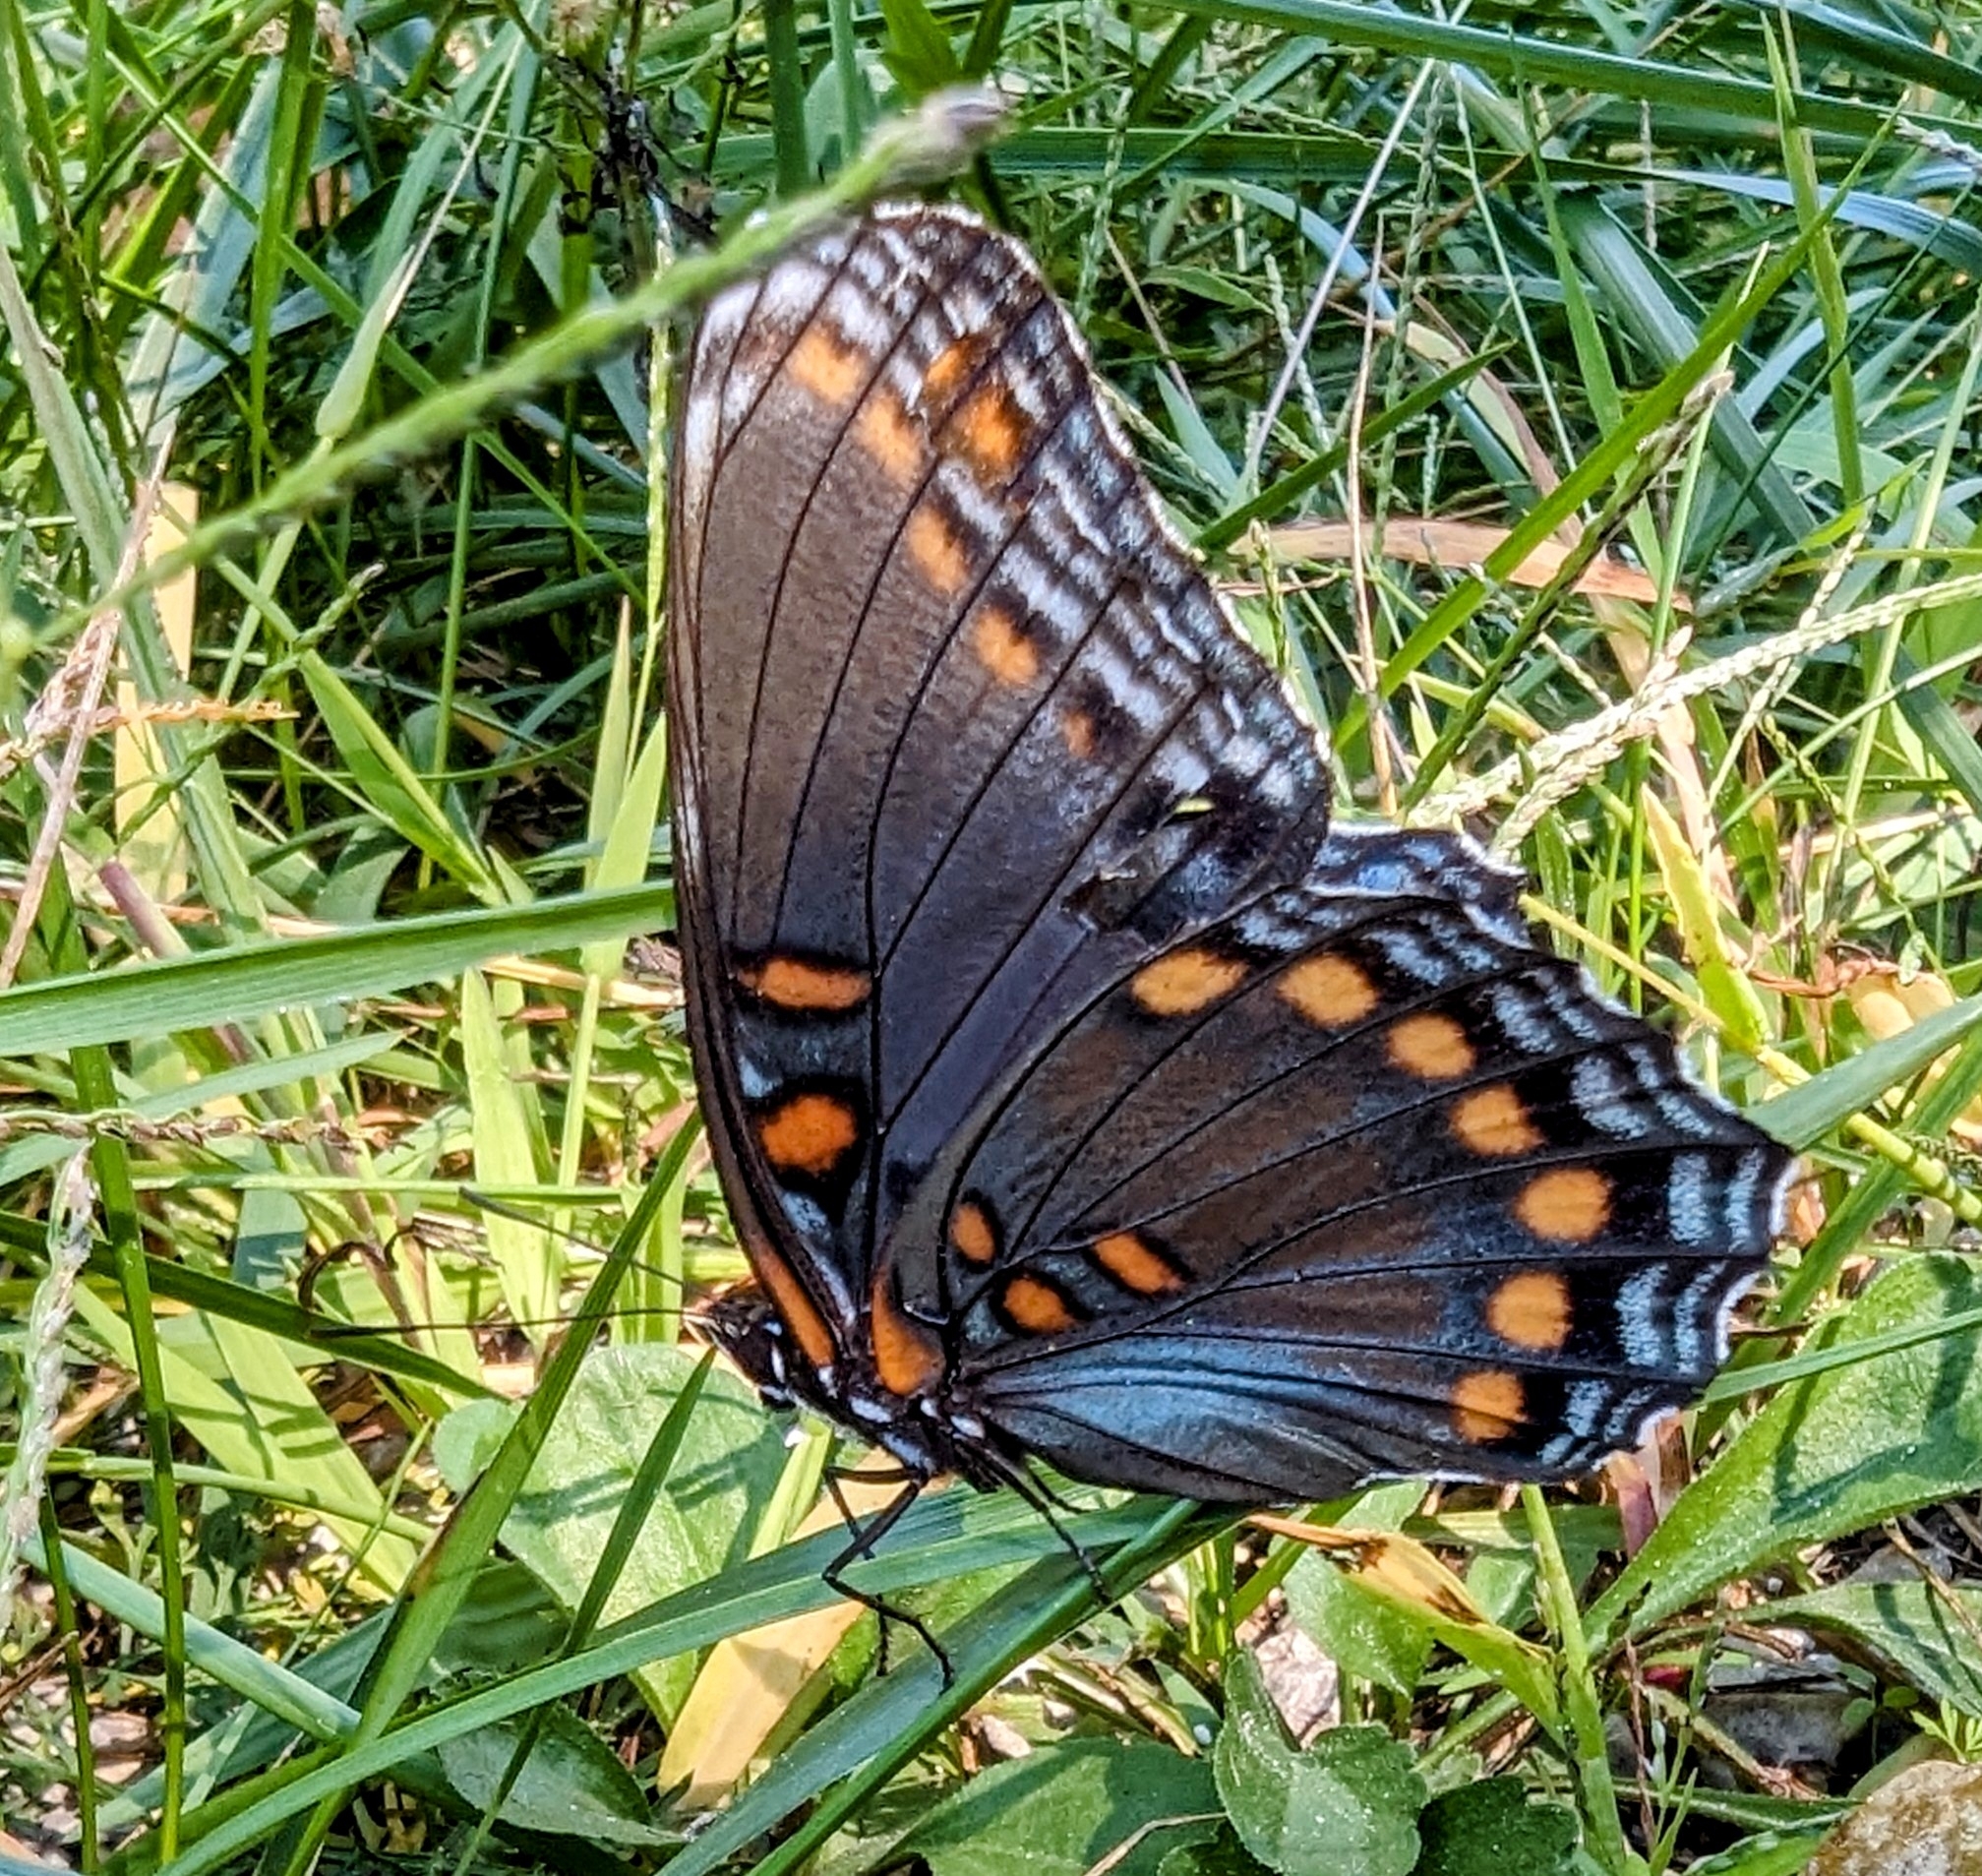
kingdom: Animalia
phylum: Arthropoda
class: Insecta
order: Lepidoptera
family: Nymphalidae
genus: Limenitis
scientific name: Limenitis astyanax
